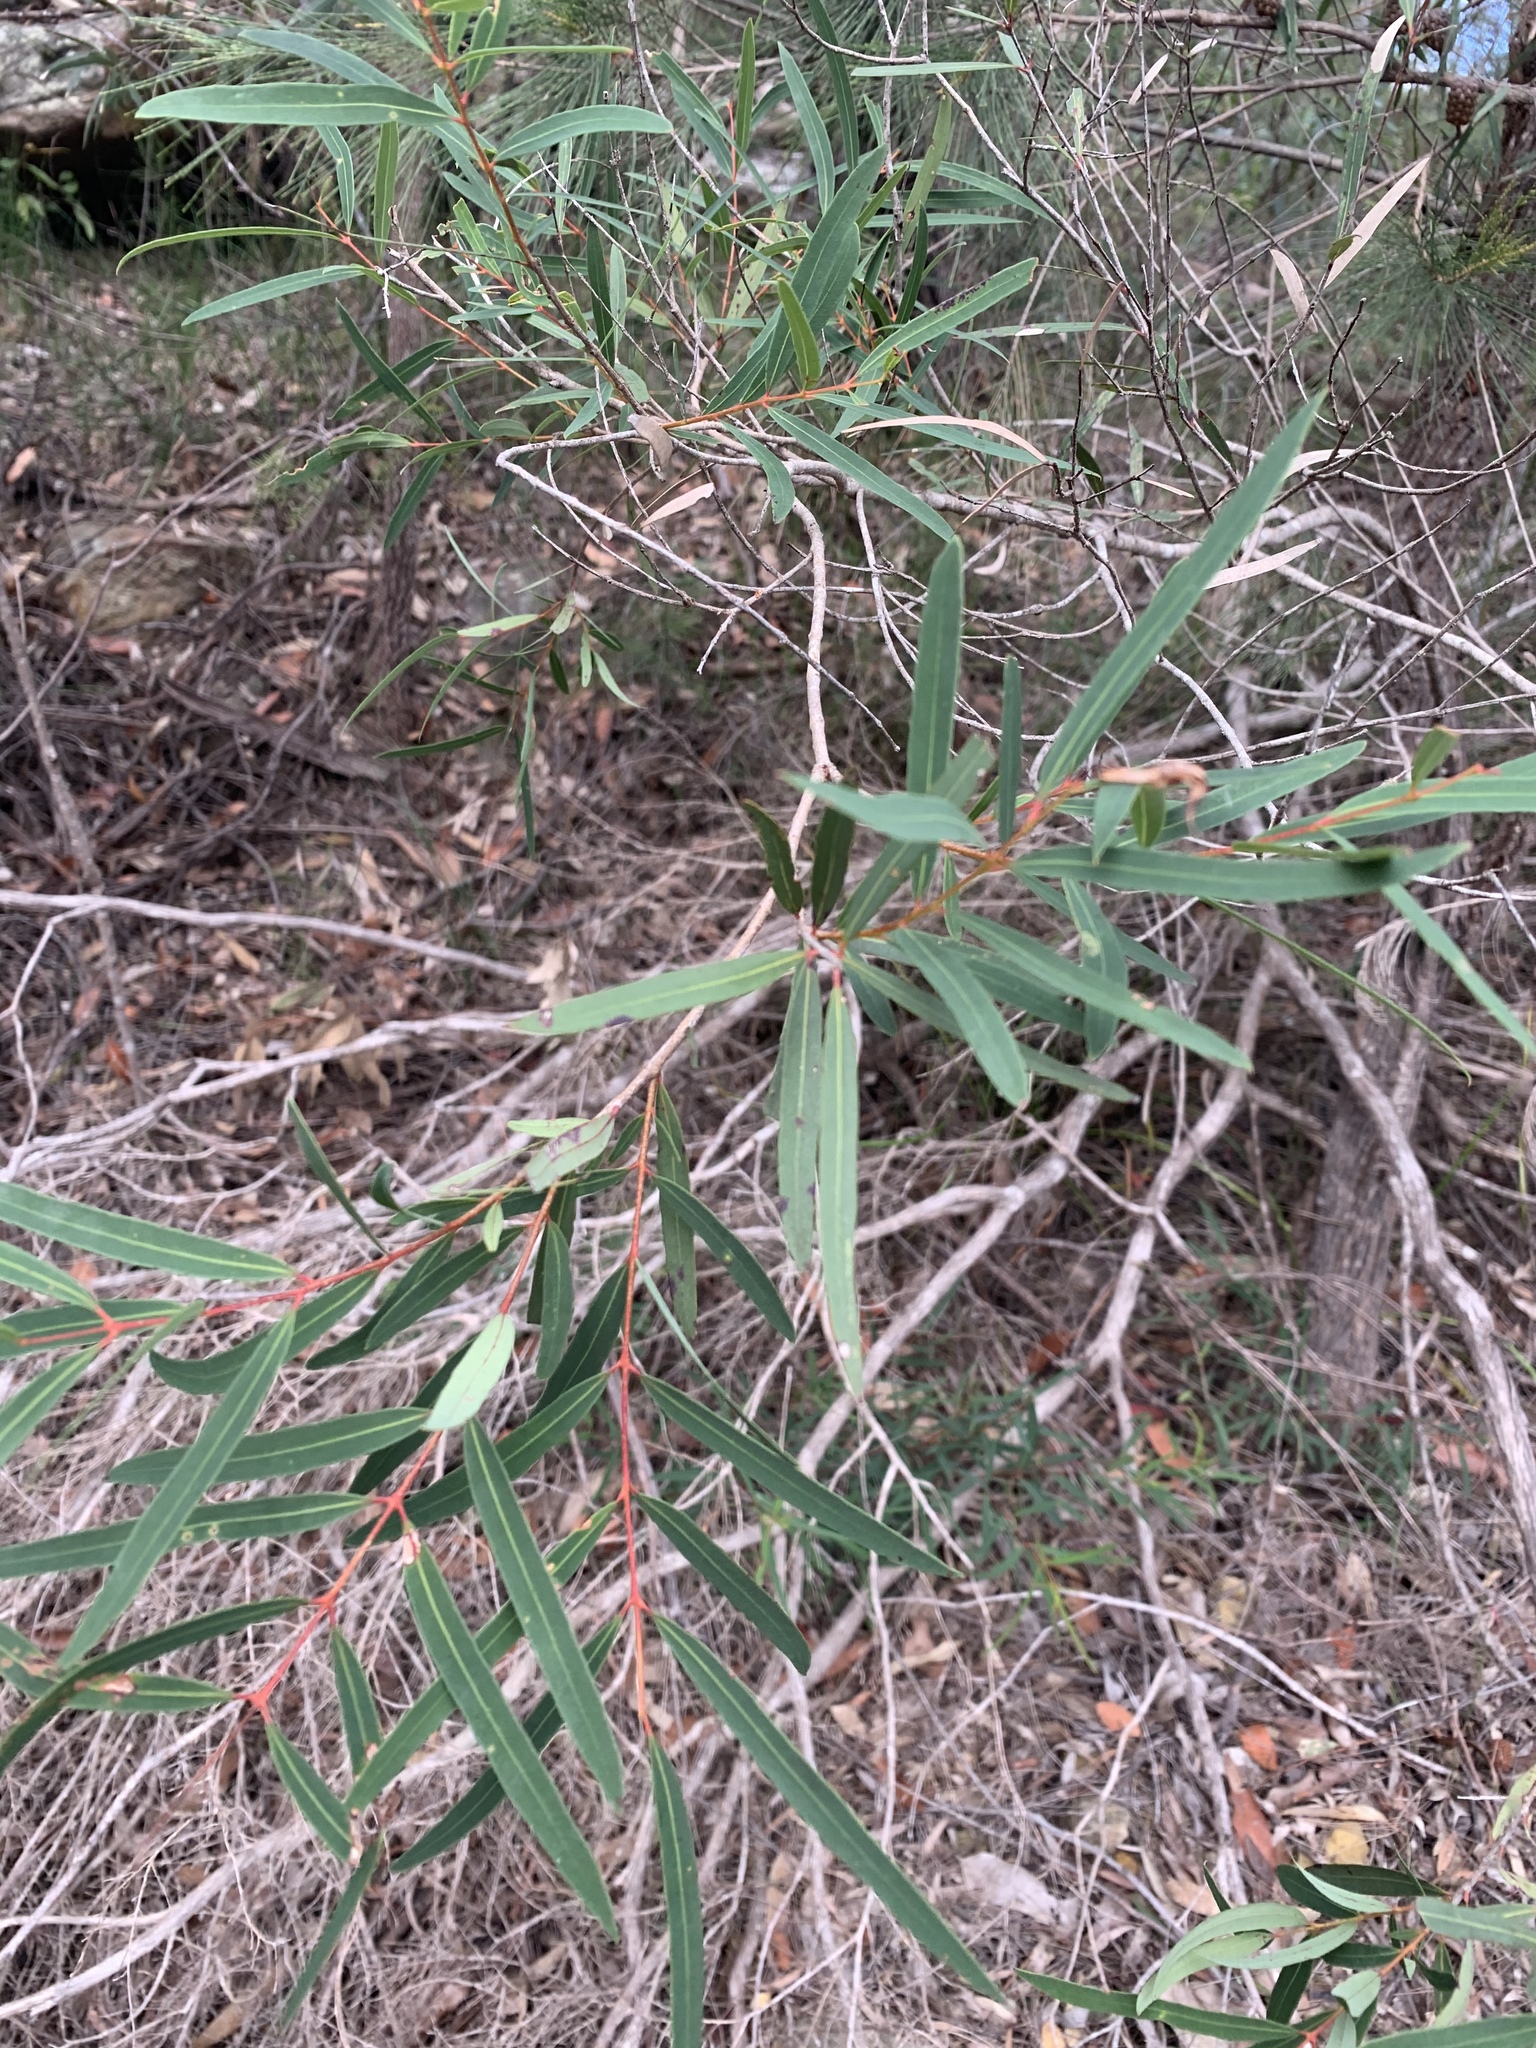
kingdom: Plantae
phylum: Tracheophyta
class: Magnoliopsida
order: Myrtales
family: Myrtaceae
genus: Angophora
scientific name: Angophora bakeri
